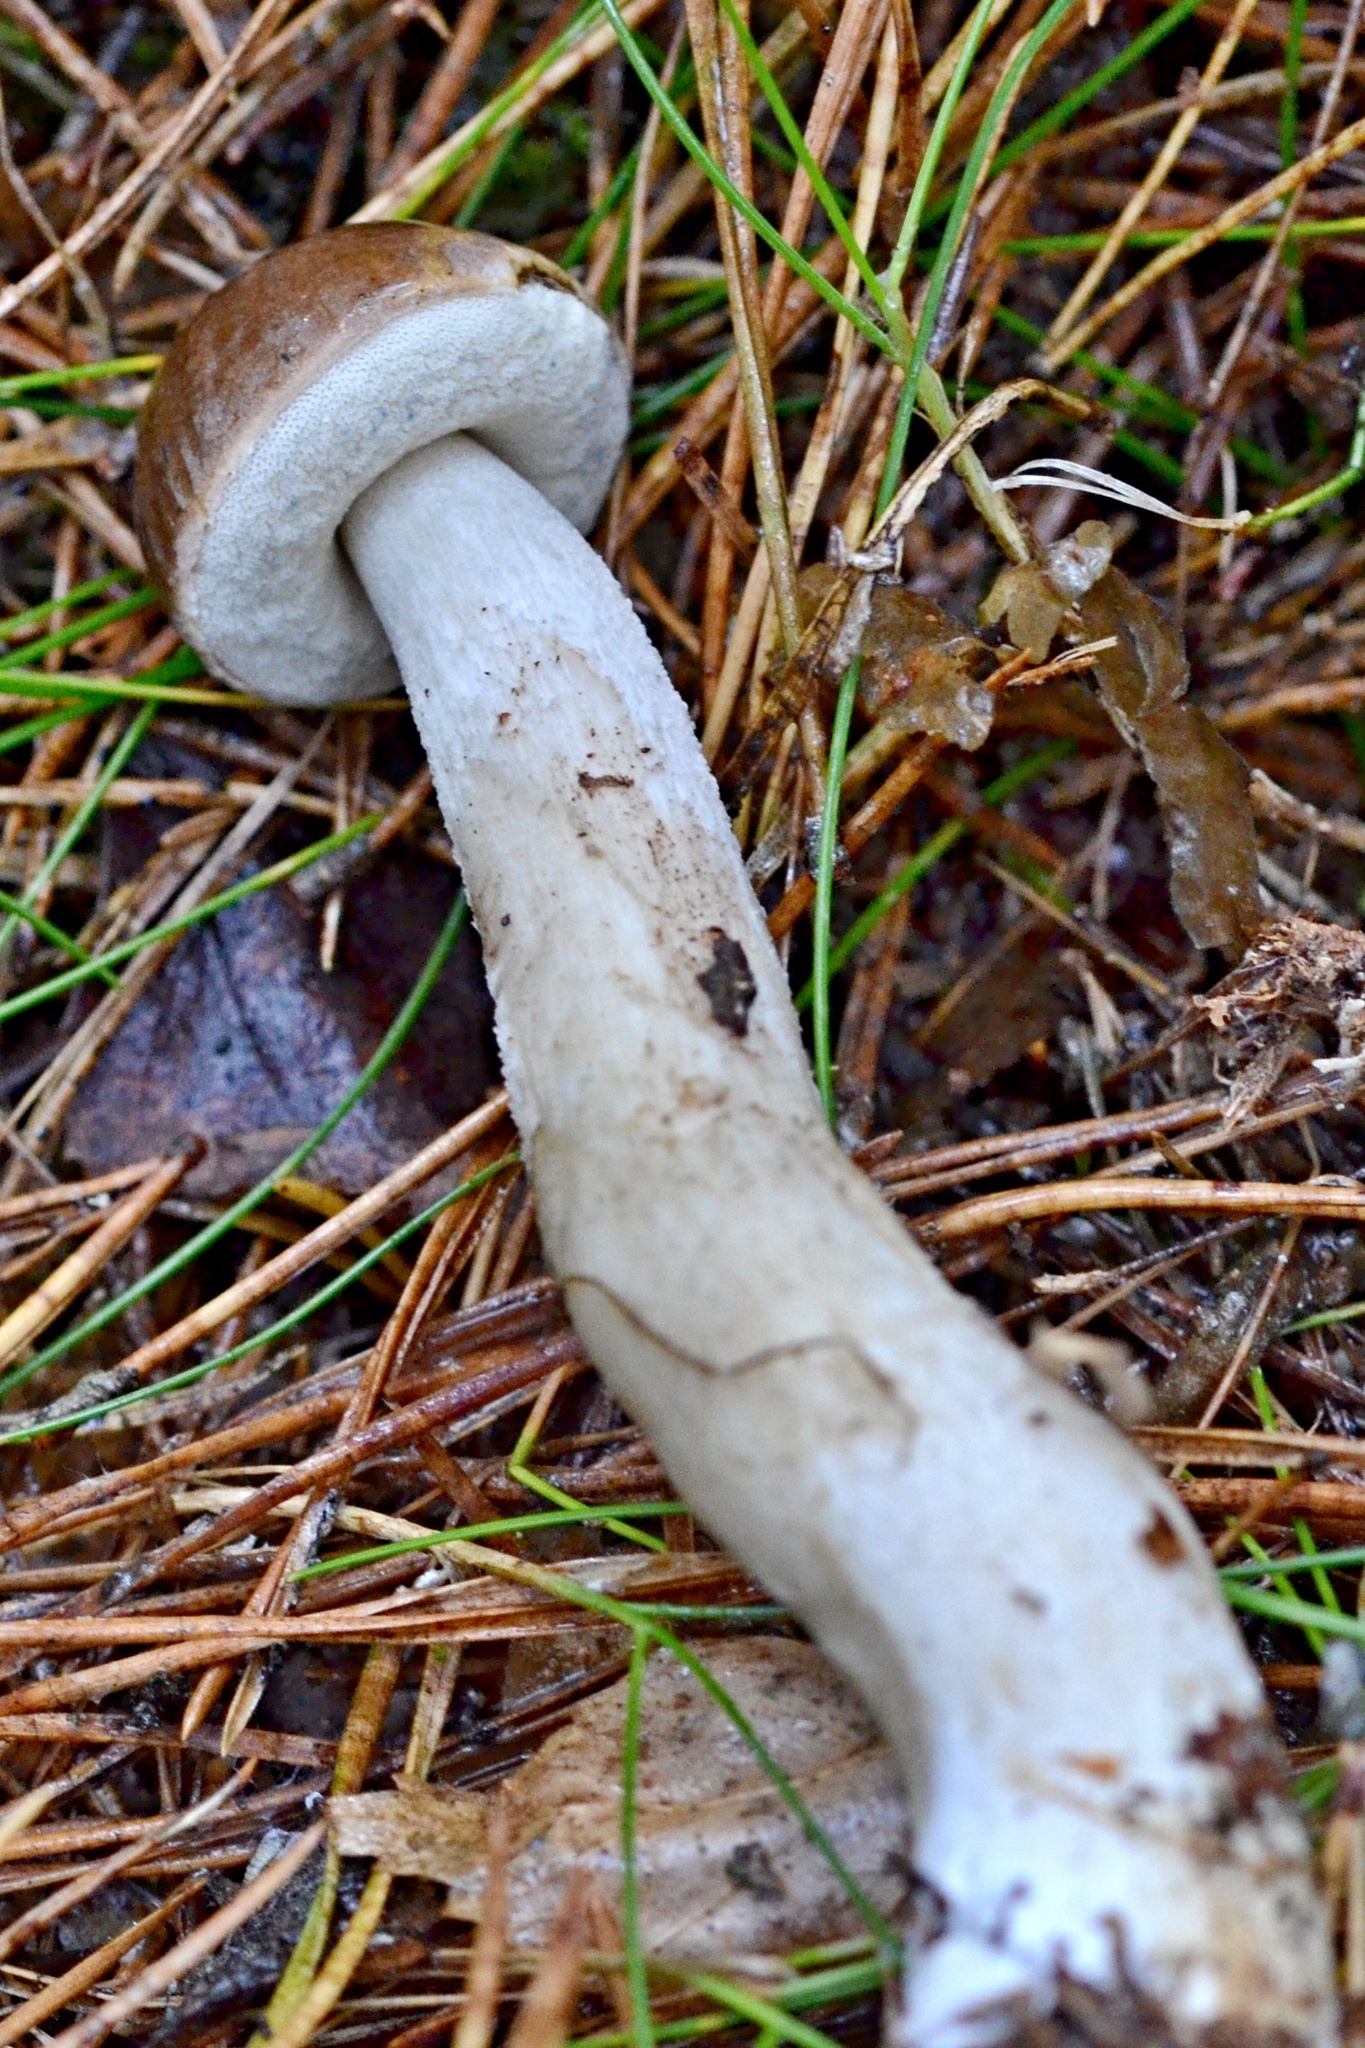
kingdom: Fungi
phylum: Basidiomycota
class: Agaricomycetes
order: Boletales
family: Boletaceae
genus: Leccinum
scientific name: Leccinum scabrum
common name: Blushing bolete
